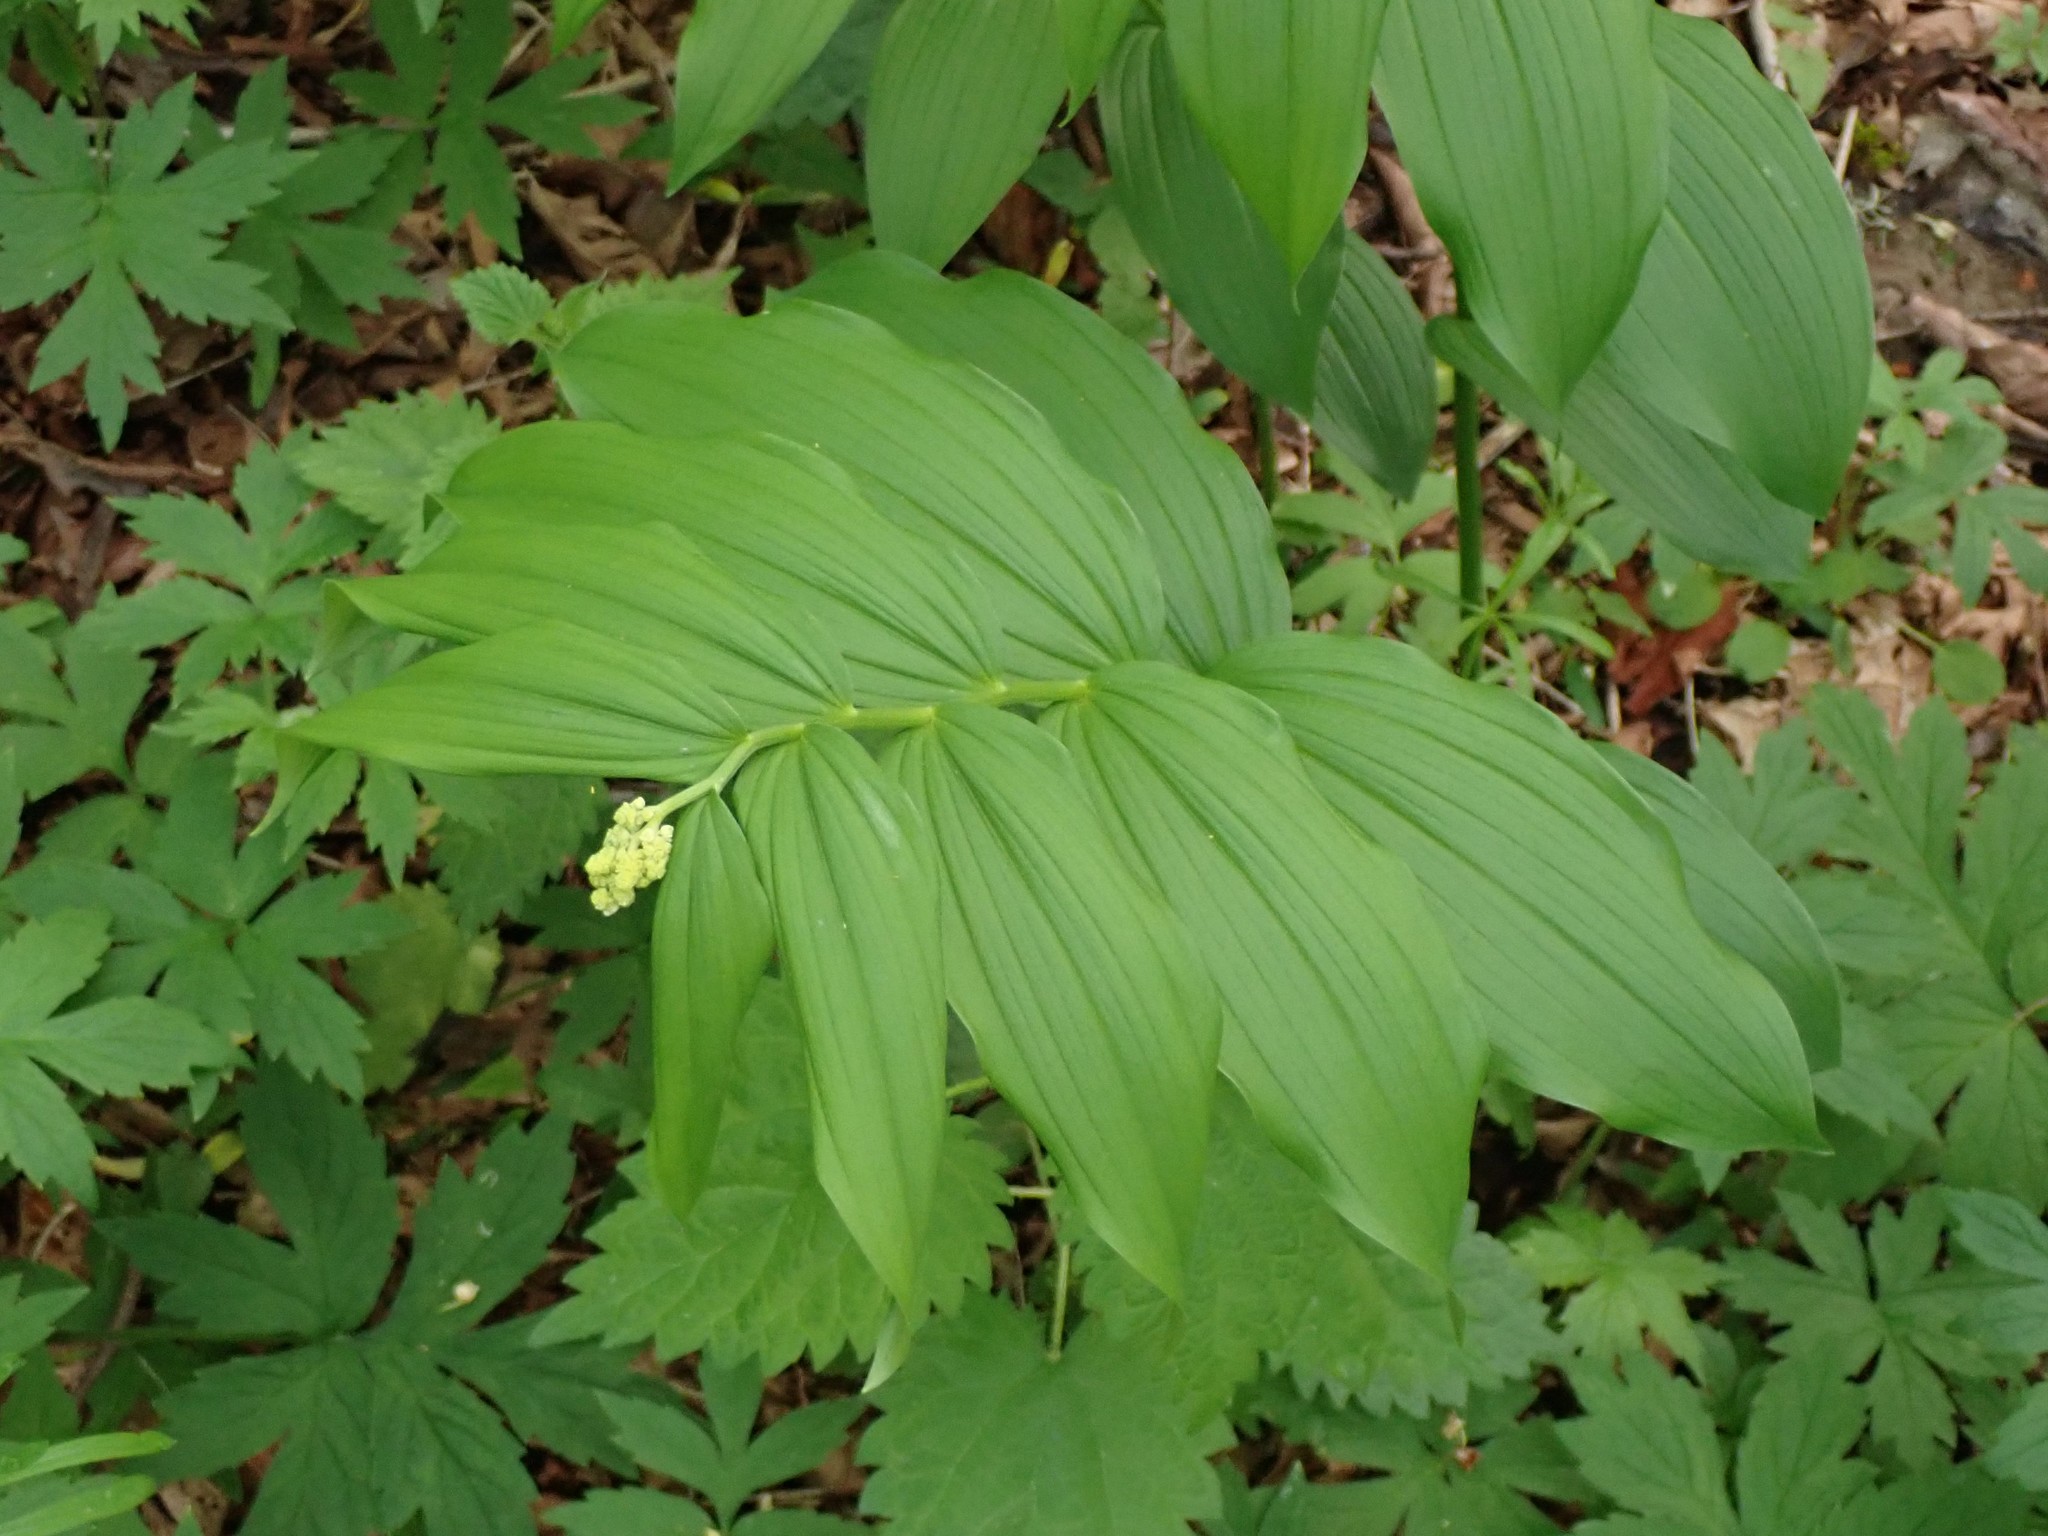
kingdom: Plantae
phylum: Tracheophyta
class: Liliopsida
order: Asparagales
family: Asparagaceae
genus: Maianthemum
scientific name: Maianthemum racemosum
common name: False spikenard
